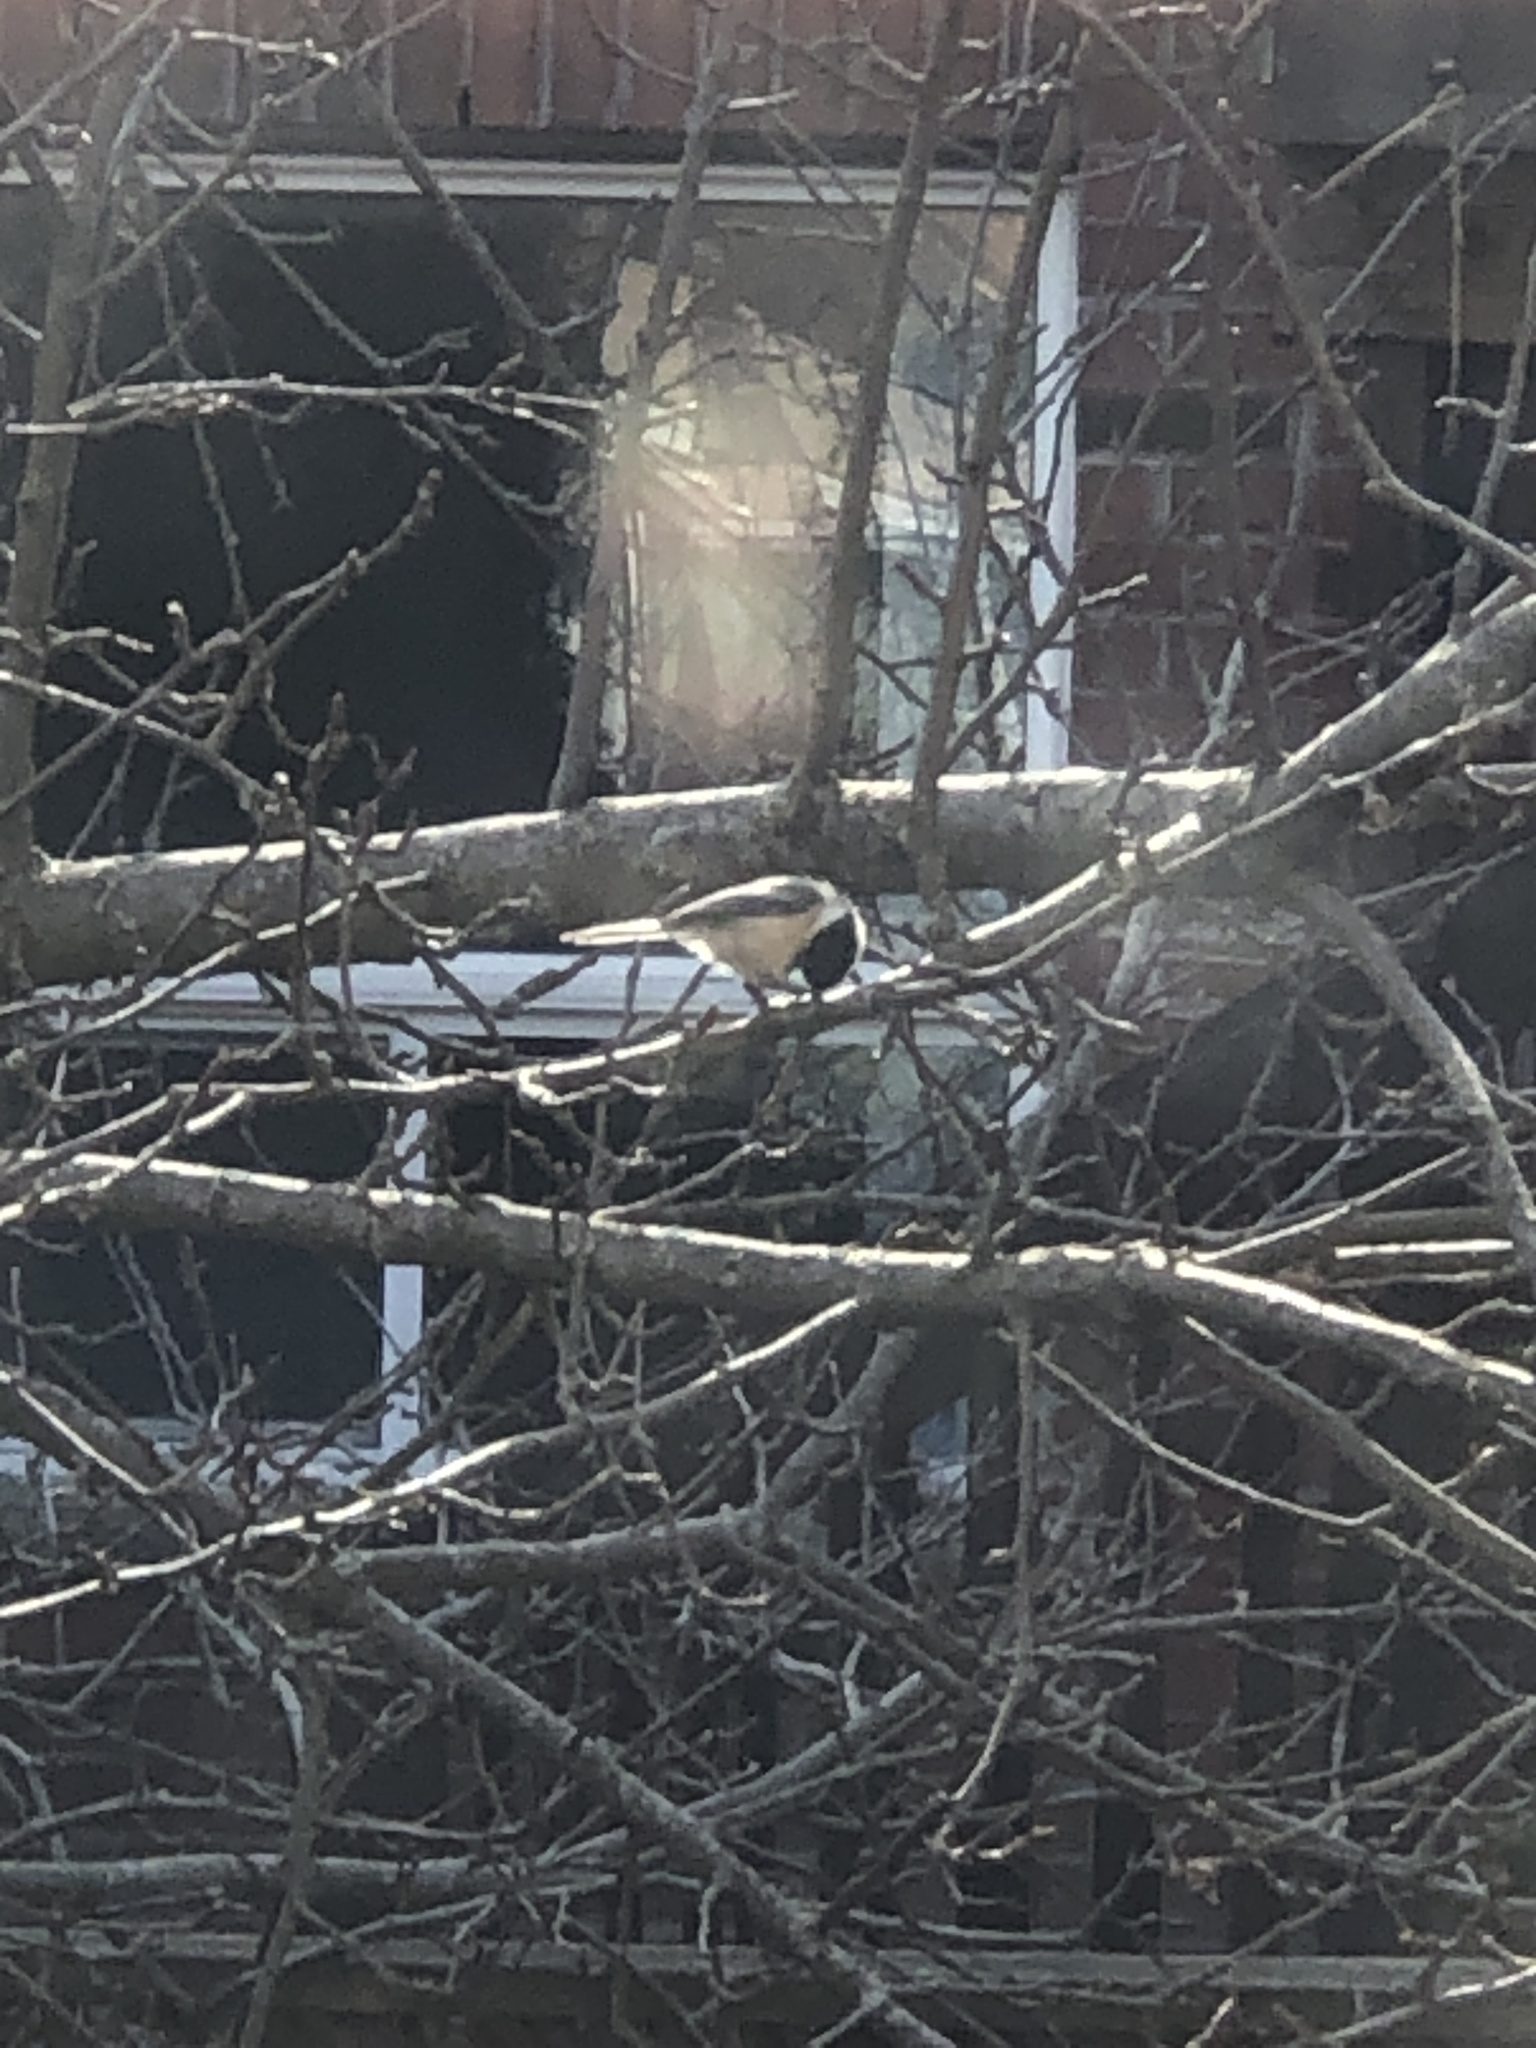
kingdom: Animalia
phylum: Chordata
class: Aves
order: Passeriformes
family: Paridae
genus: Poecile
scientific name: Poecile atricapillus
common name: Black-capped chickadee
